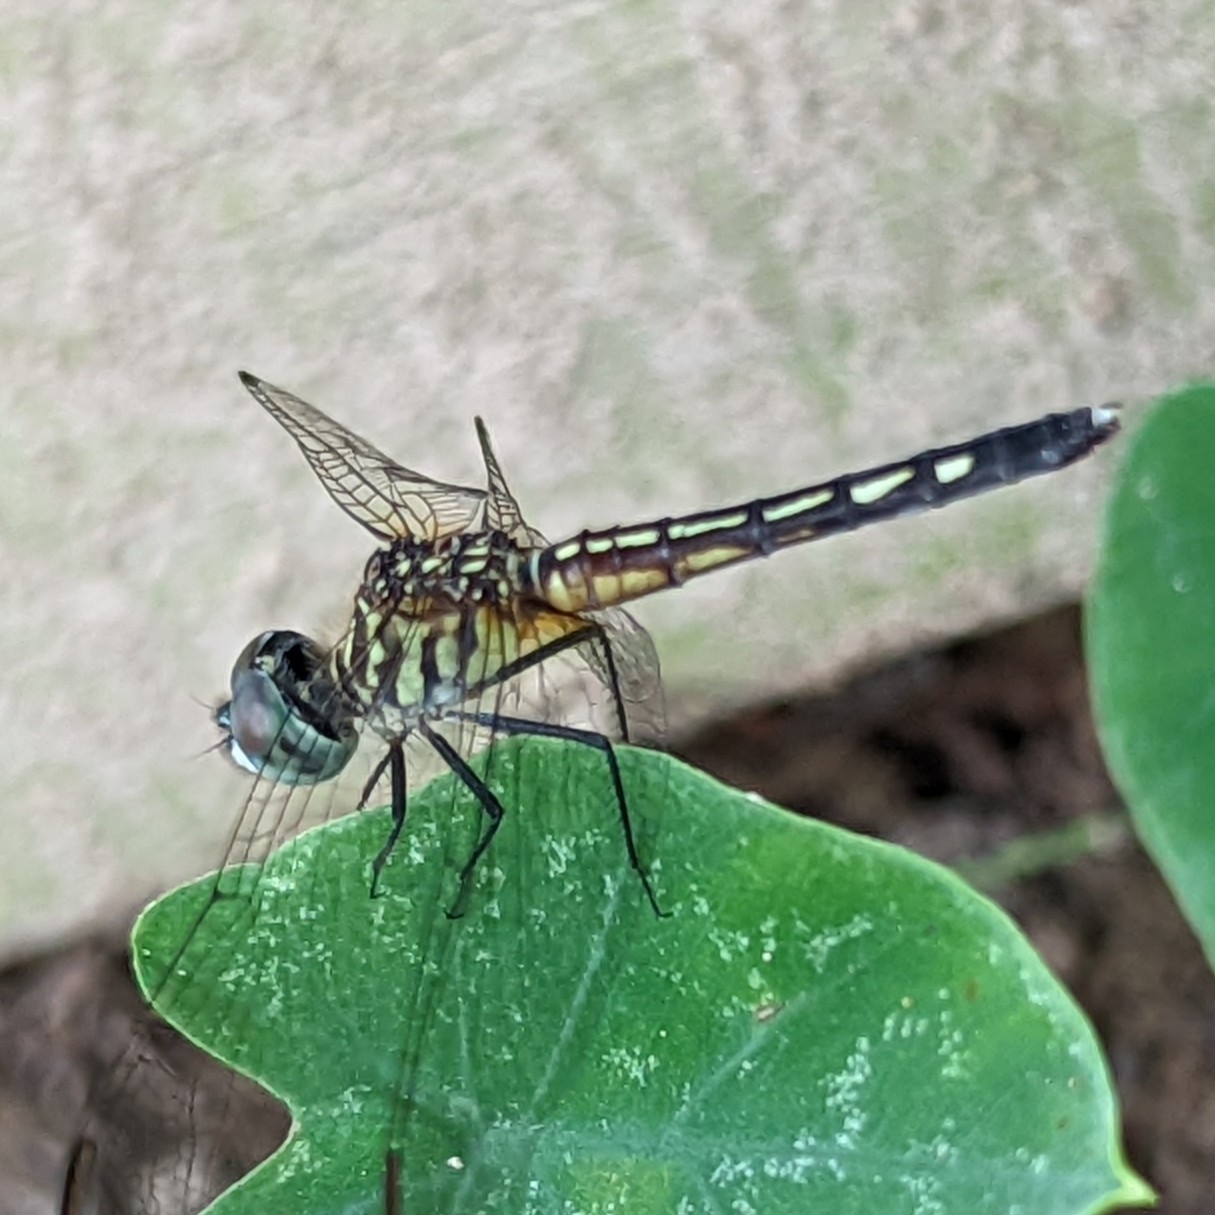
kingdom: Animalia
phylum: Arthropoda
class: Insecta
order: Odonata
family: Libellulidae
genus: Pachydiplax
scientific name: Pachydiplax longipennis
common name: Blue dasher
